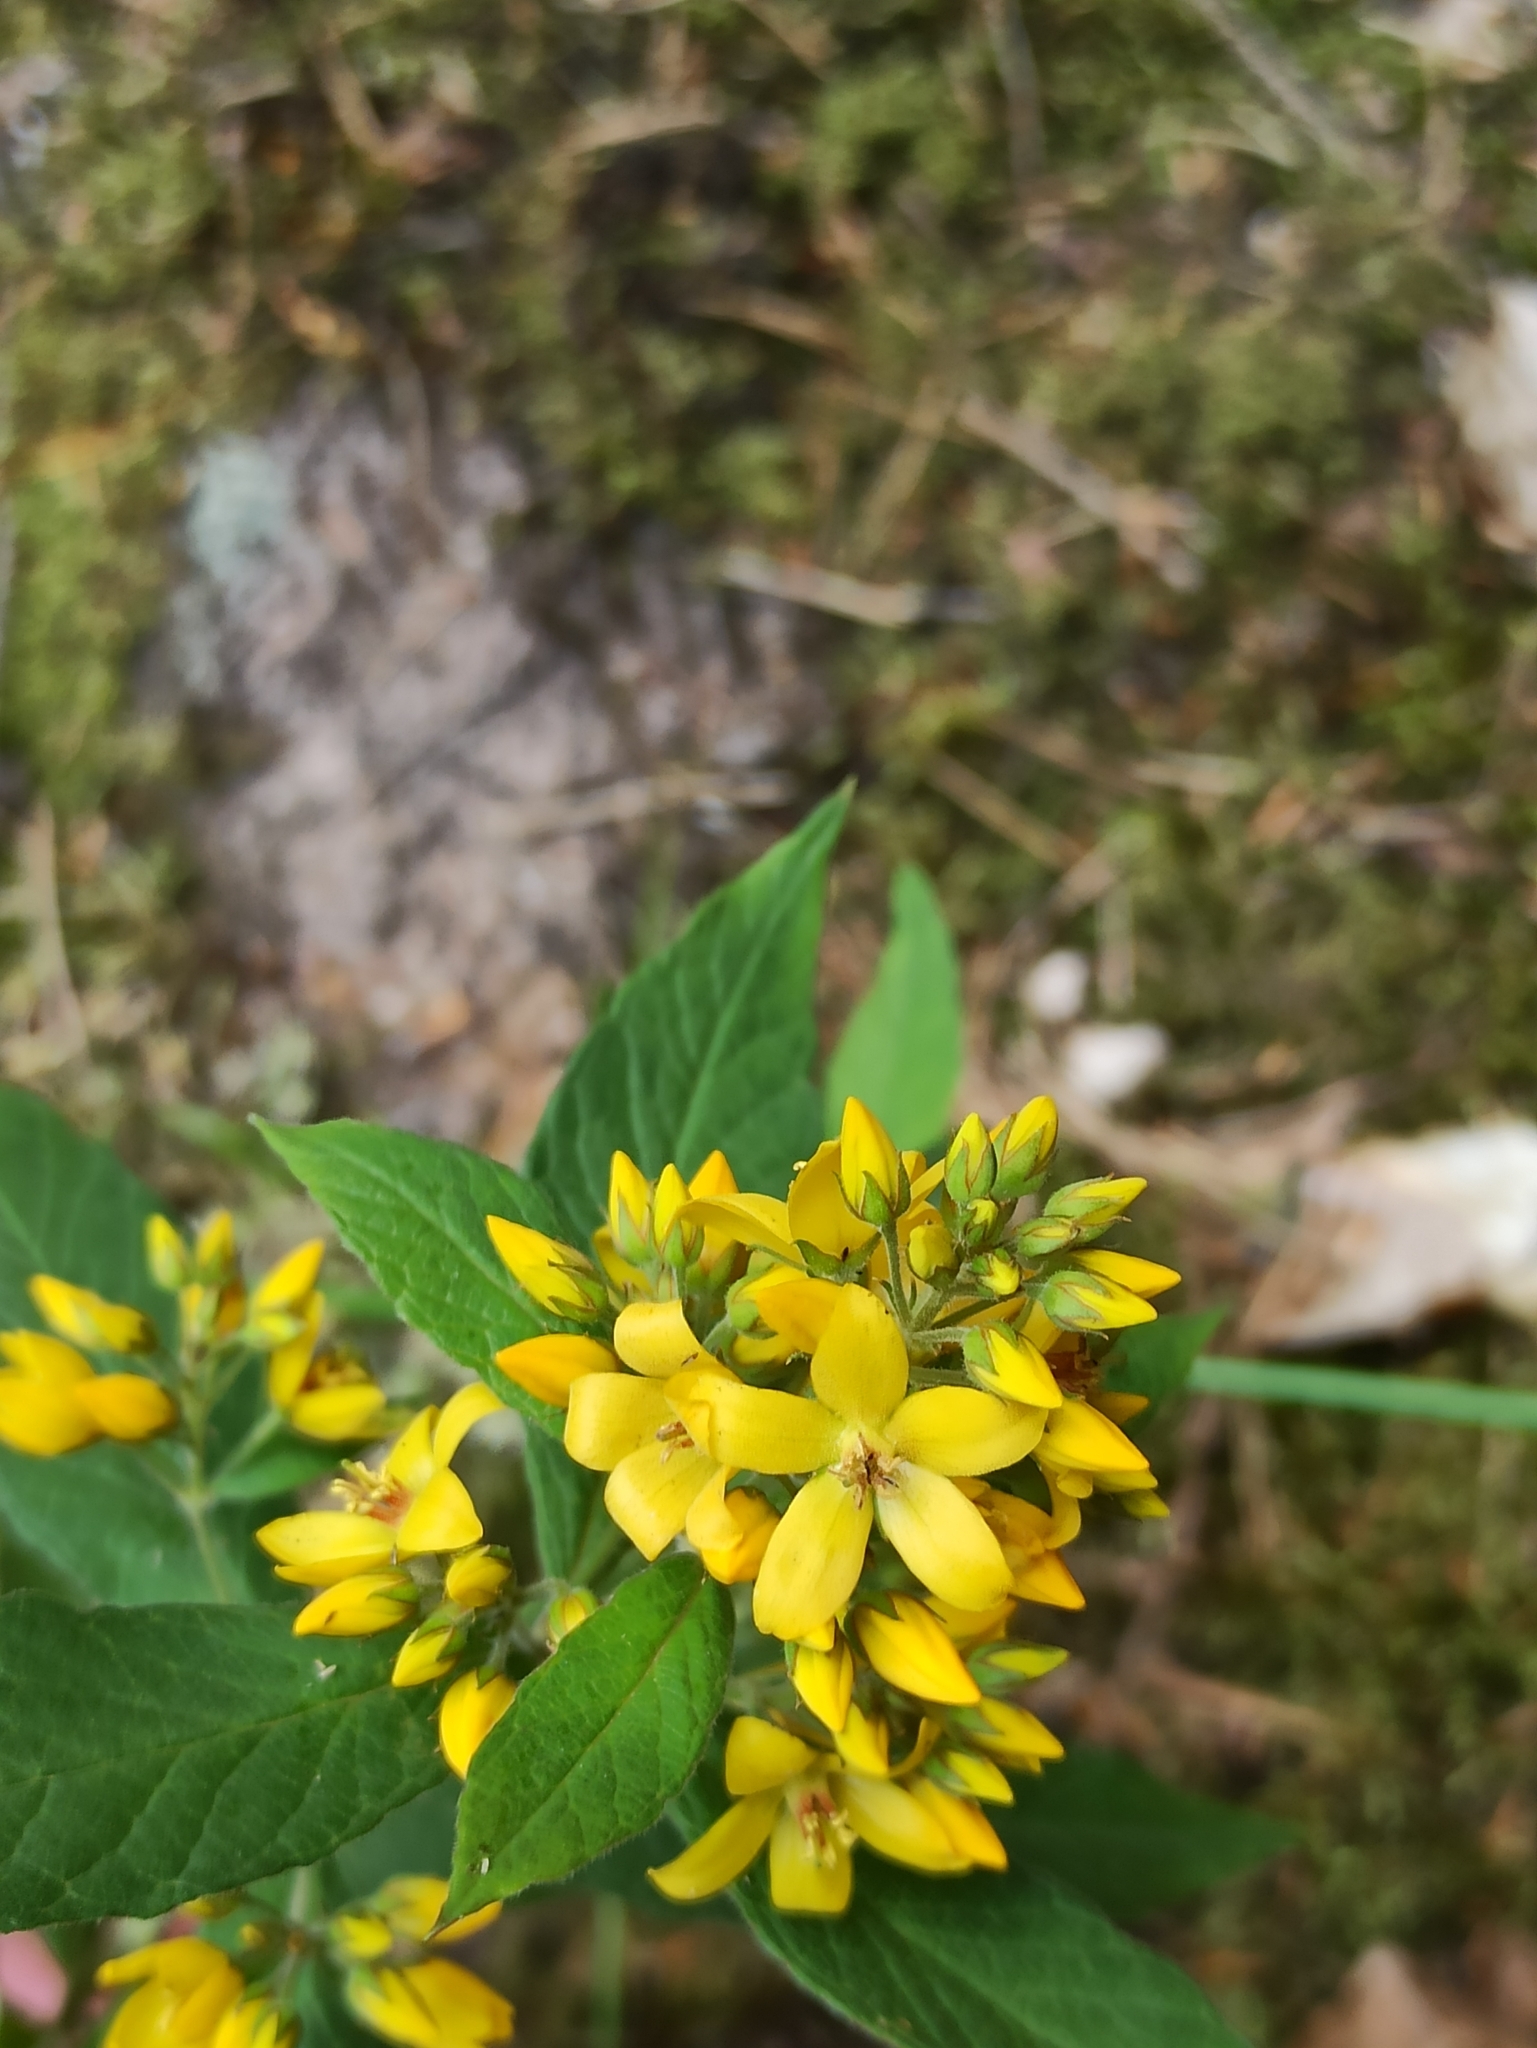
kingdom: Plantae
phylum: Tracheophyta
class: Magnoliopsida
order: Ericales
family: Primulaceae
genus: Lysimachia
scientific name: Lysimachia vulgaris
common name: Yellow loosestrife
